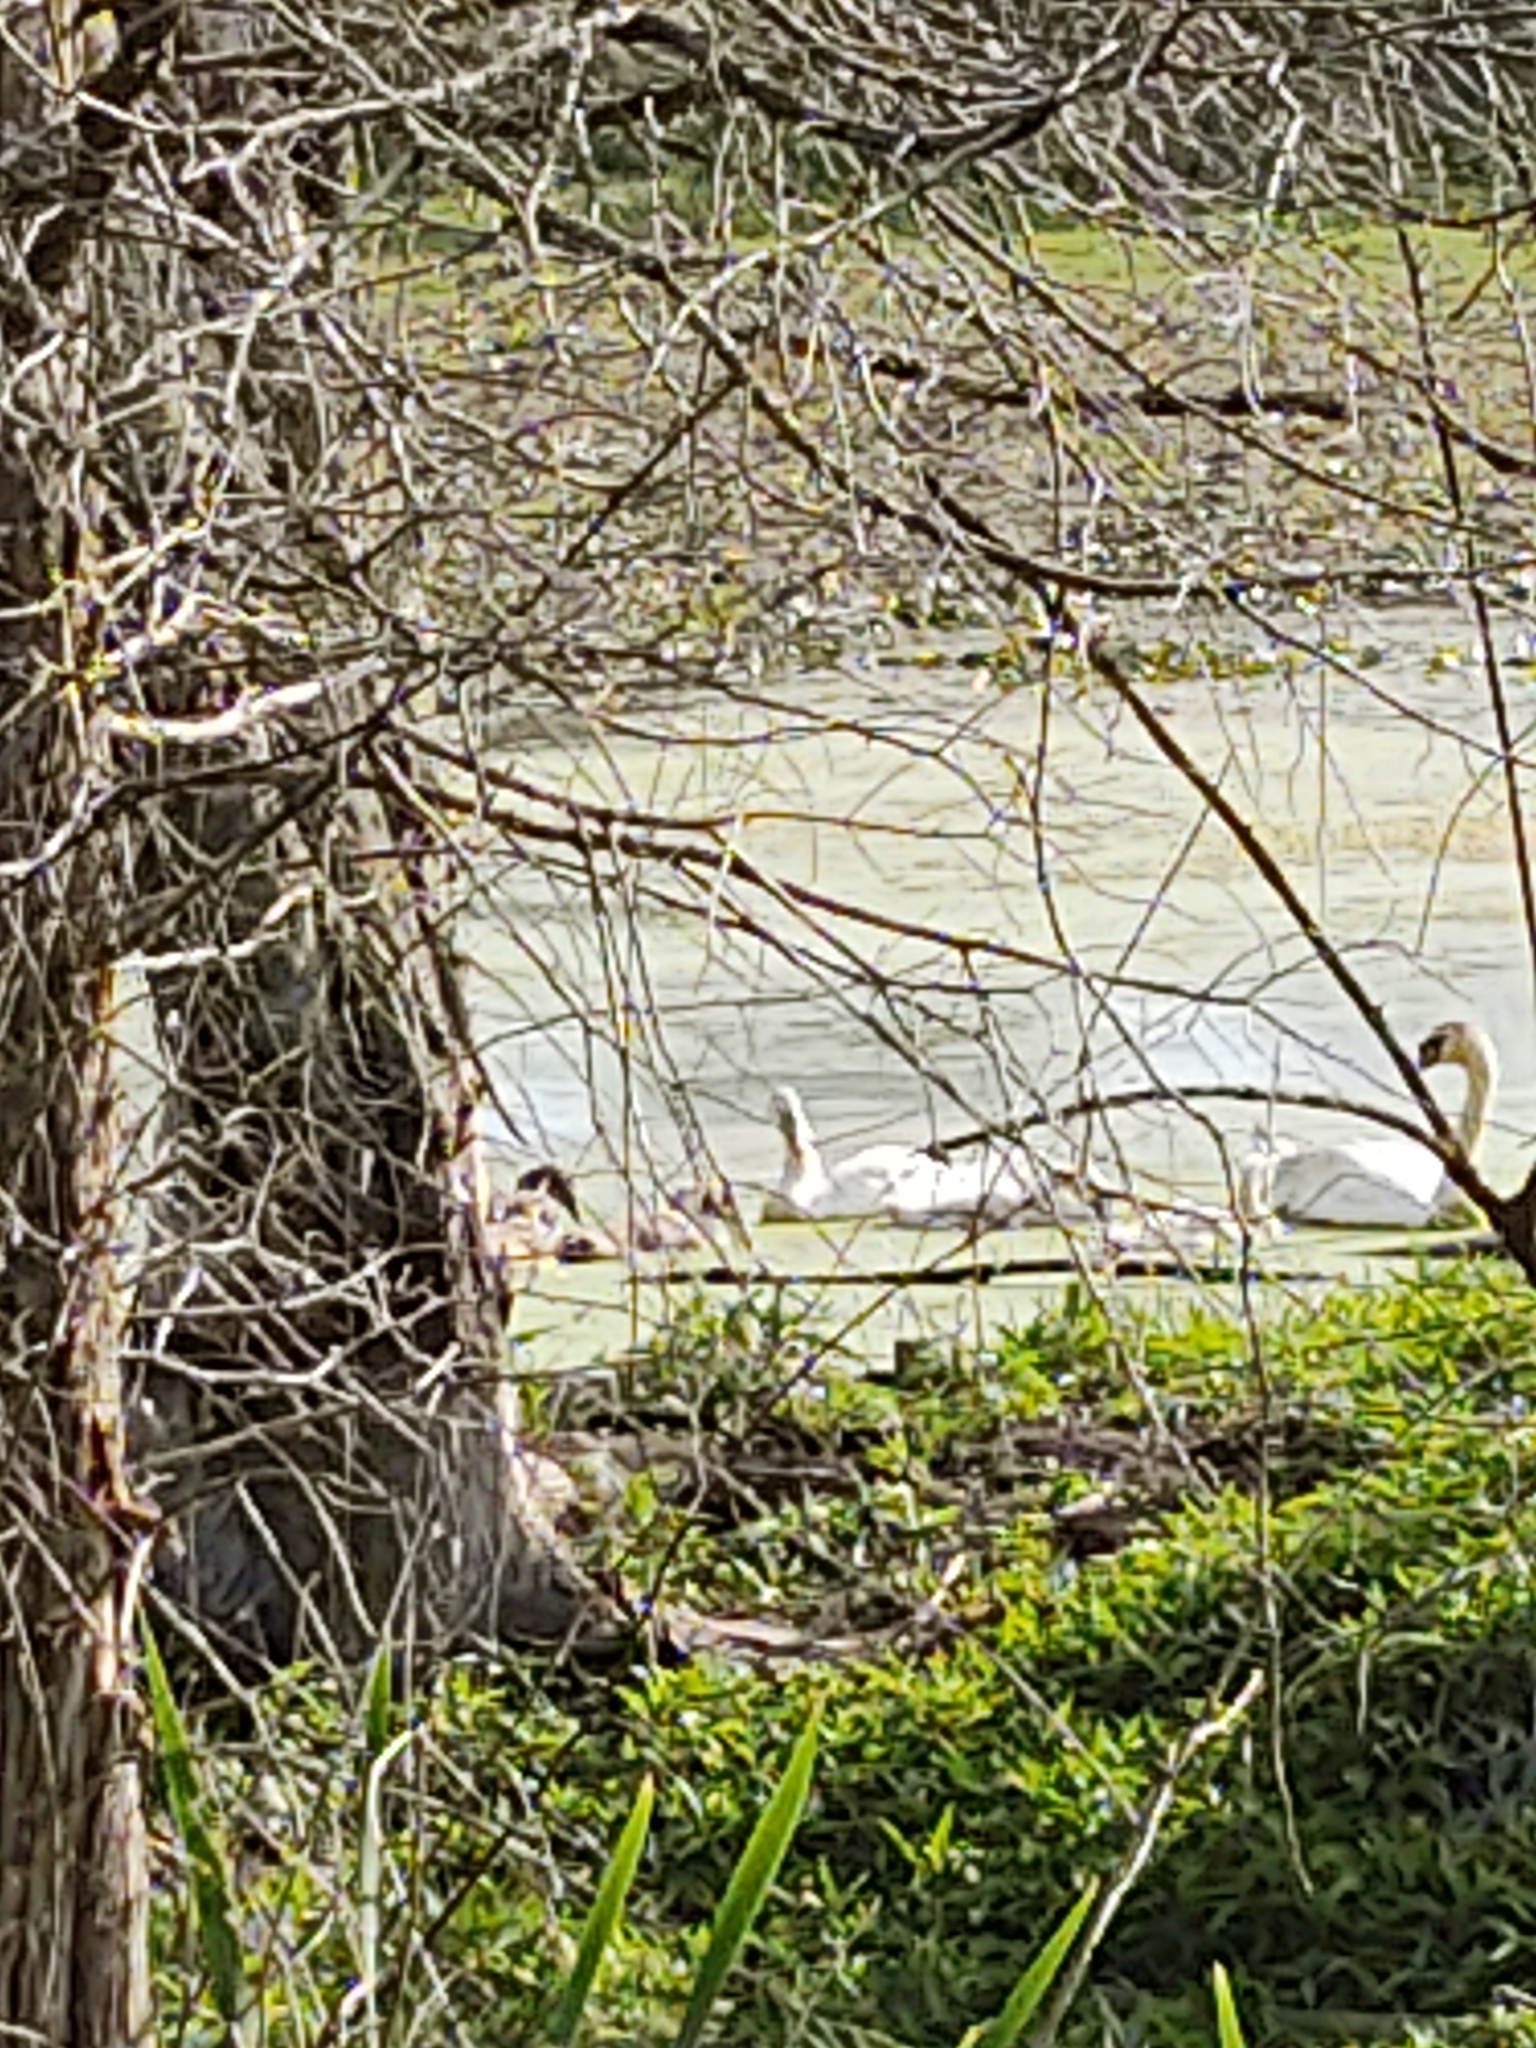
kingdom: Animalia
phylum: Chordata
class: Aves
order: Anseriformes
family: Anatidae
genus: Cygnus
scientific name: Cygnus olor
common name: Mute swan
